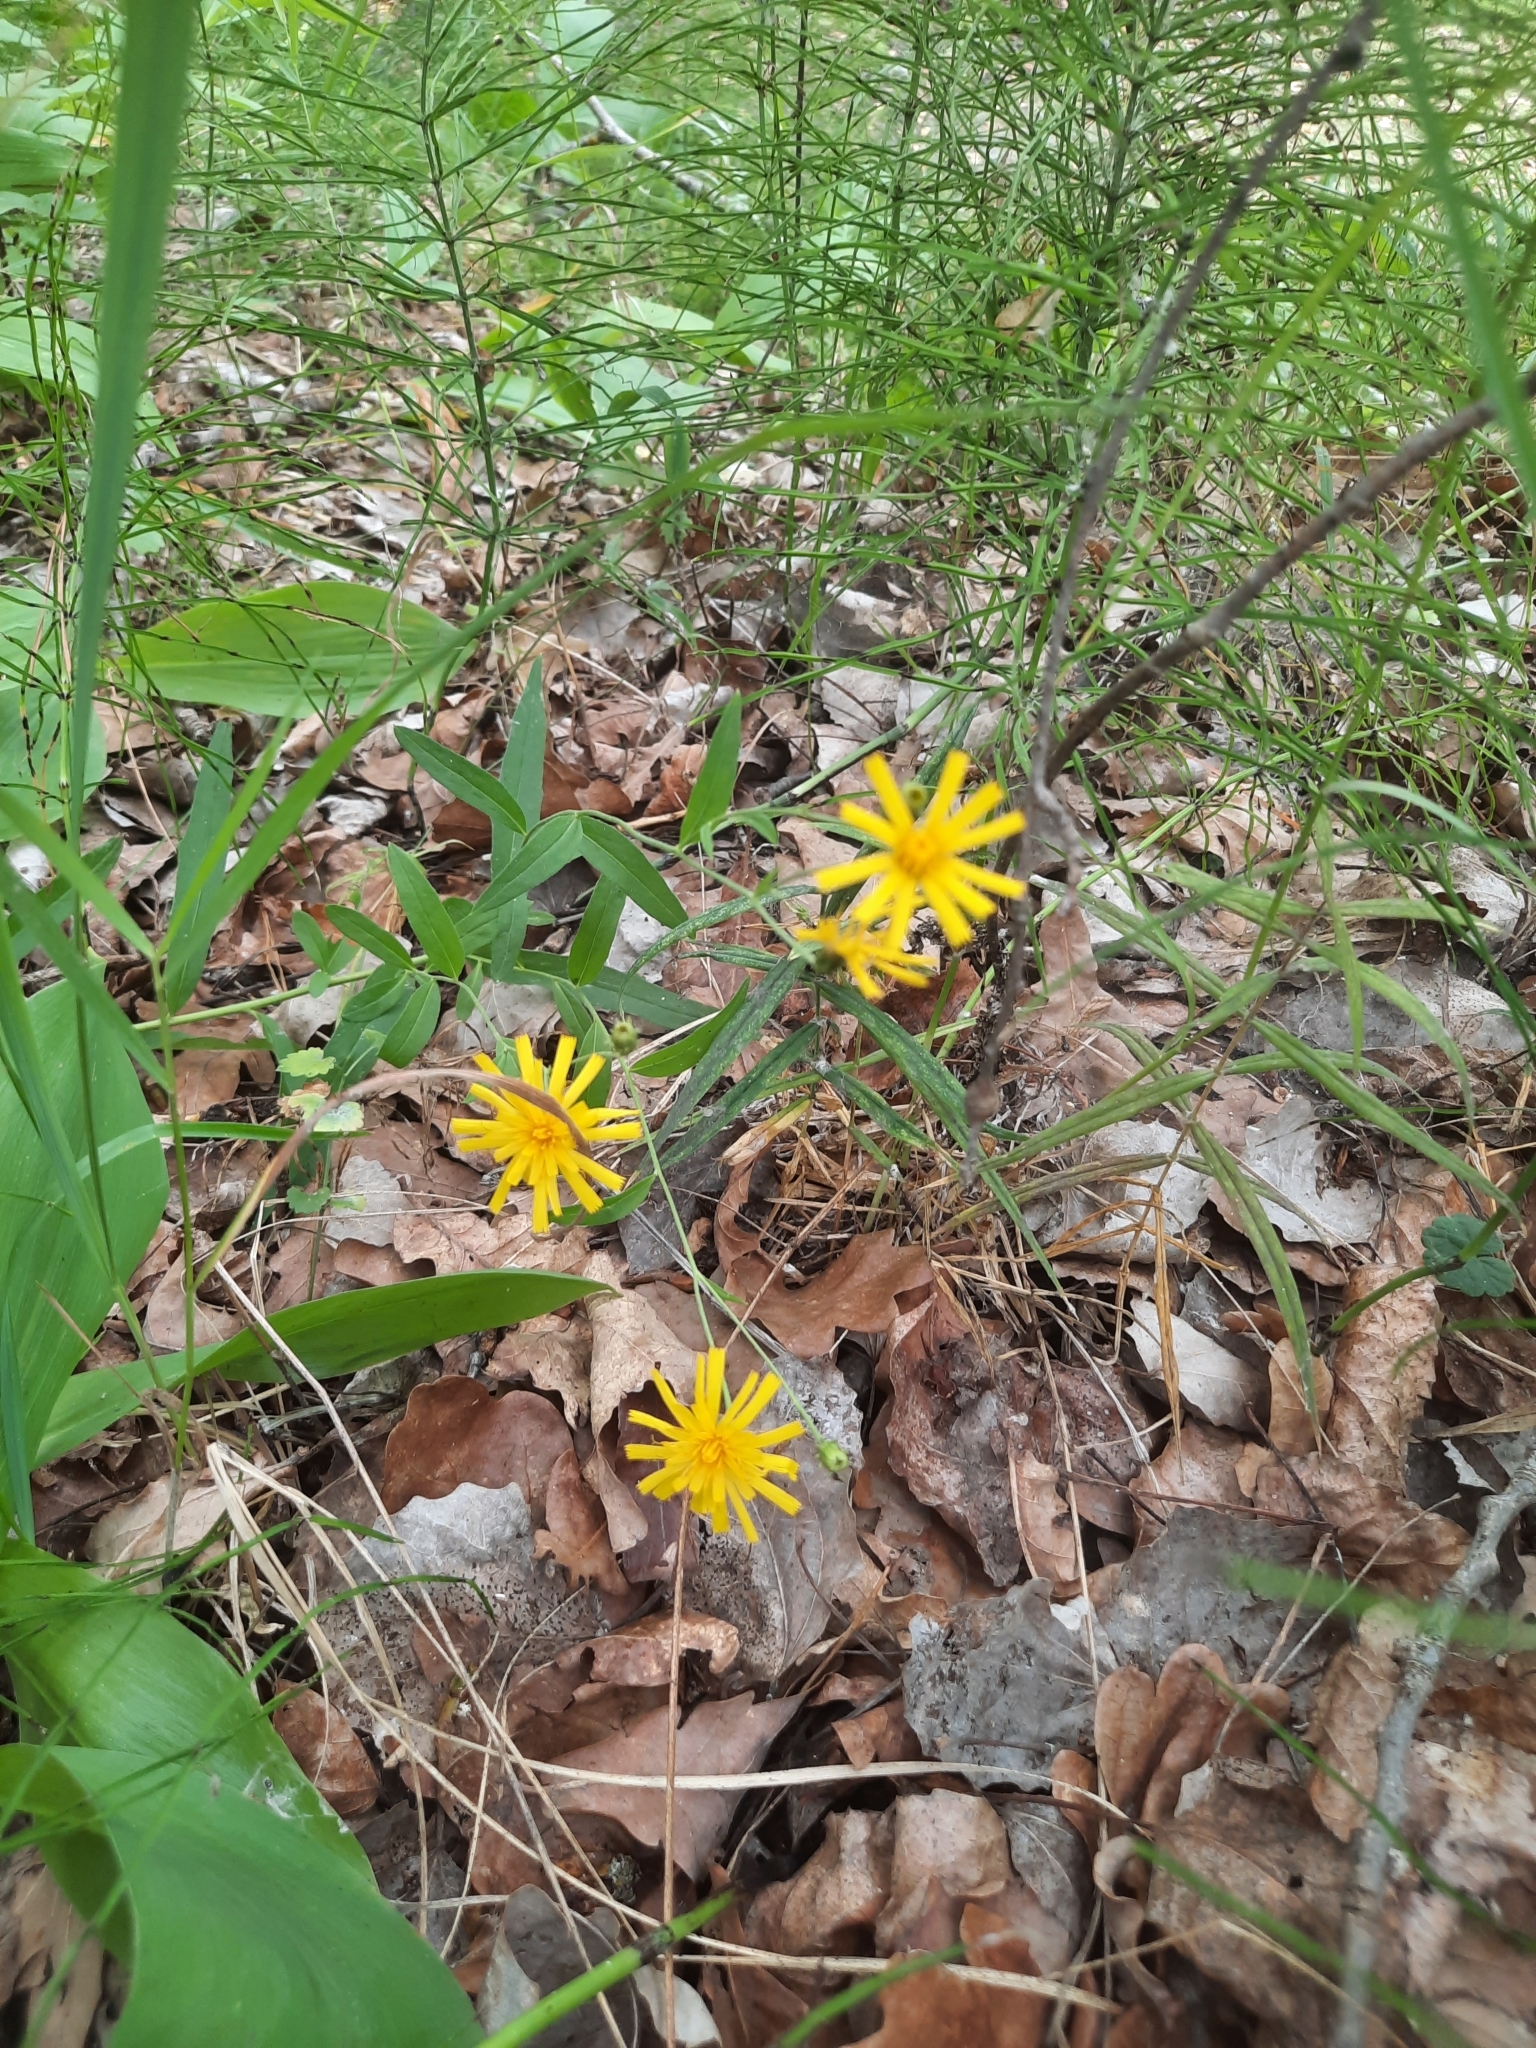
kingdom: Plantae
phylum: Tracheophyta
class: Magnoliopsida
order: Asterales
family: Asteraceae
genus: Hieracium
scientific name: Hieracium umbellatum
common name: Northern hawkweed
